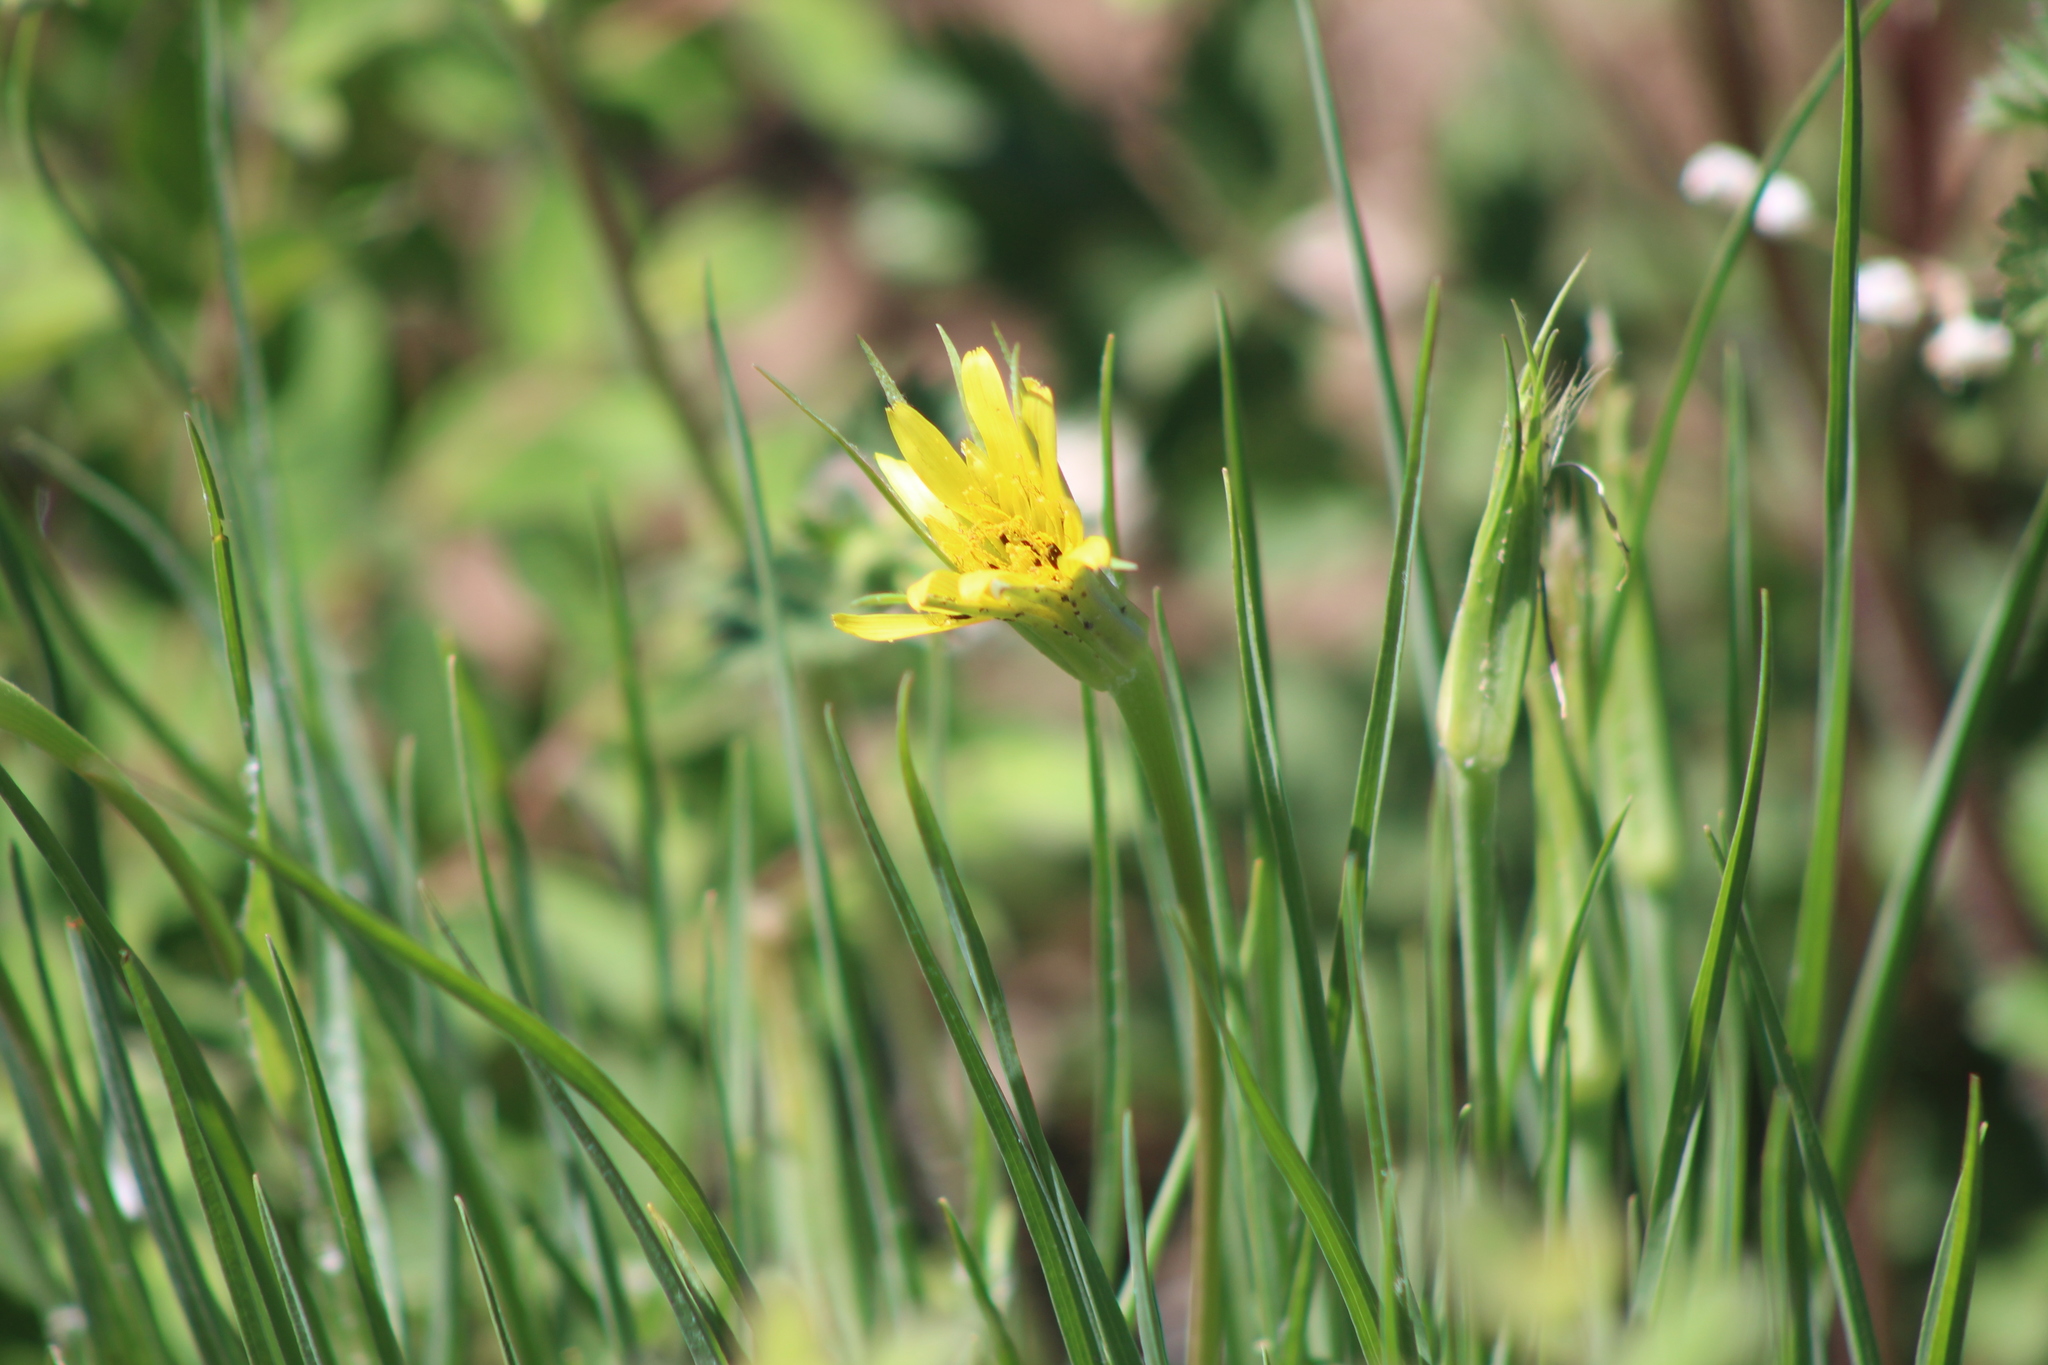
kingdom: Plantae
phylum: Tracheophyta
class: Magnoliopsida
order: Asterales
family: Asteraceae
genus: Tragopogon
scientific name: Tragopogon dubius
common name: Yellow salsify
